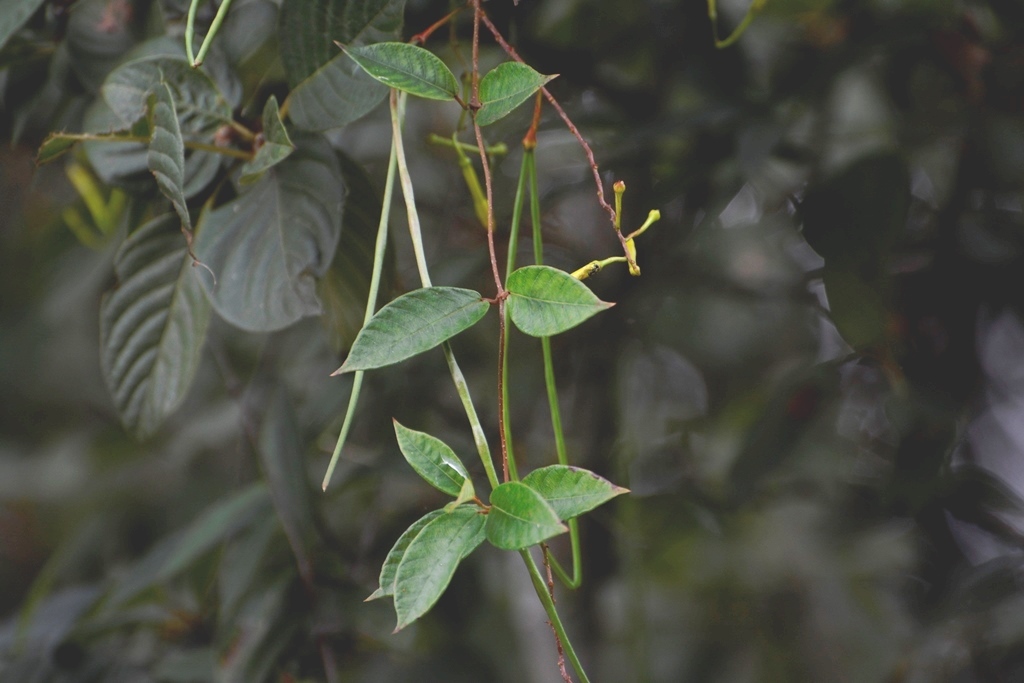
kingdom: Plantae
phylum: Tracheophyta
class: Magnoliopsida
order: Gentianales
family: Apocynaceae
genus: Mandevilla
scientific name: Mandevilla tubiflora
